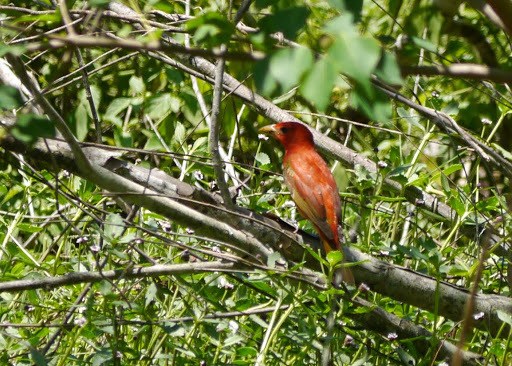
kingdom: Animalia
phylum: Chordata
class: Aves
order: Passeriformes
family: Cardinalidae
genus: Piranga
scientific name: Piranga rubra
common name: Summer tanager
